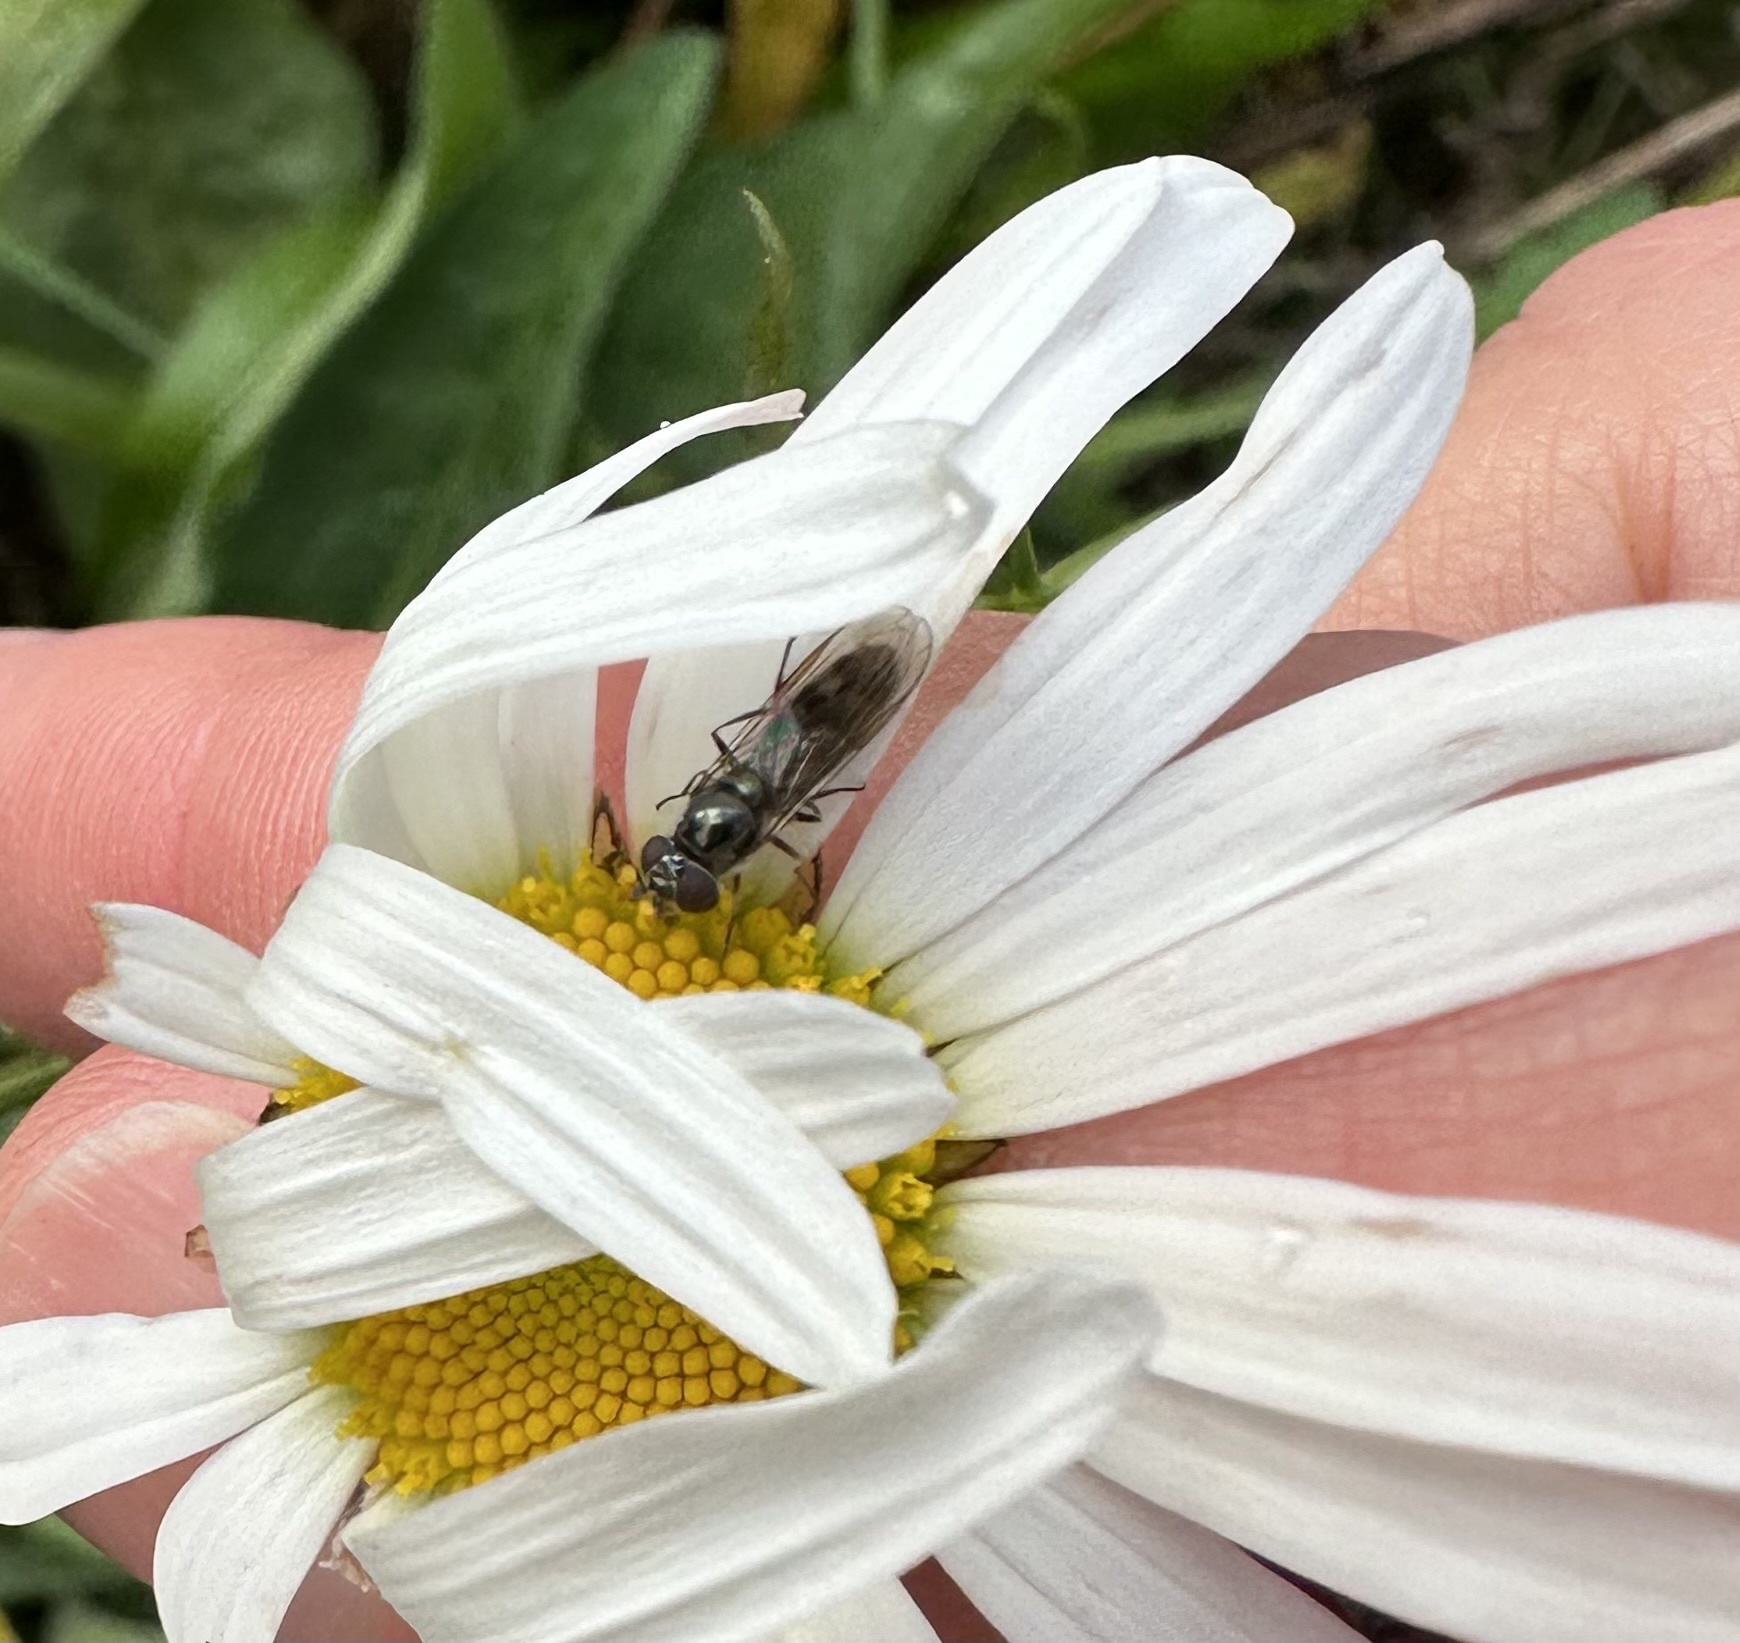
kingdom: Animalia
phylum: Arthropoda
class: Insecta
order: Diptera
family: Syrphidae
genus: Platycheirus
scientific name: Platycheirus albimanus
